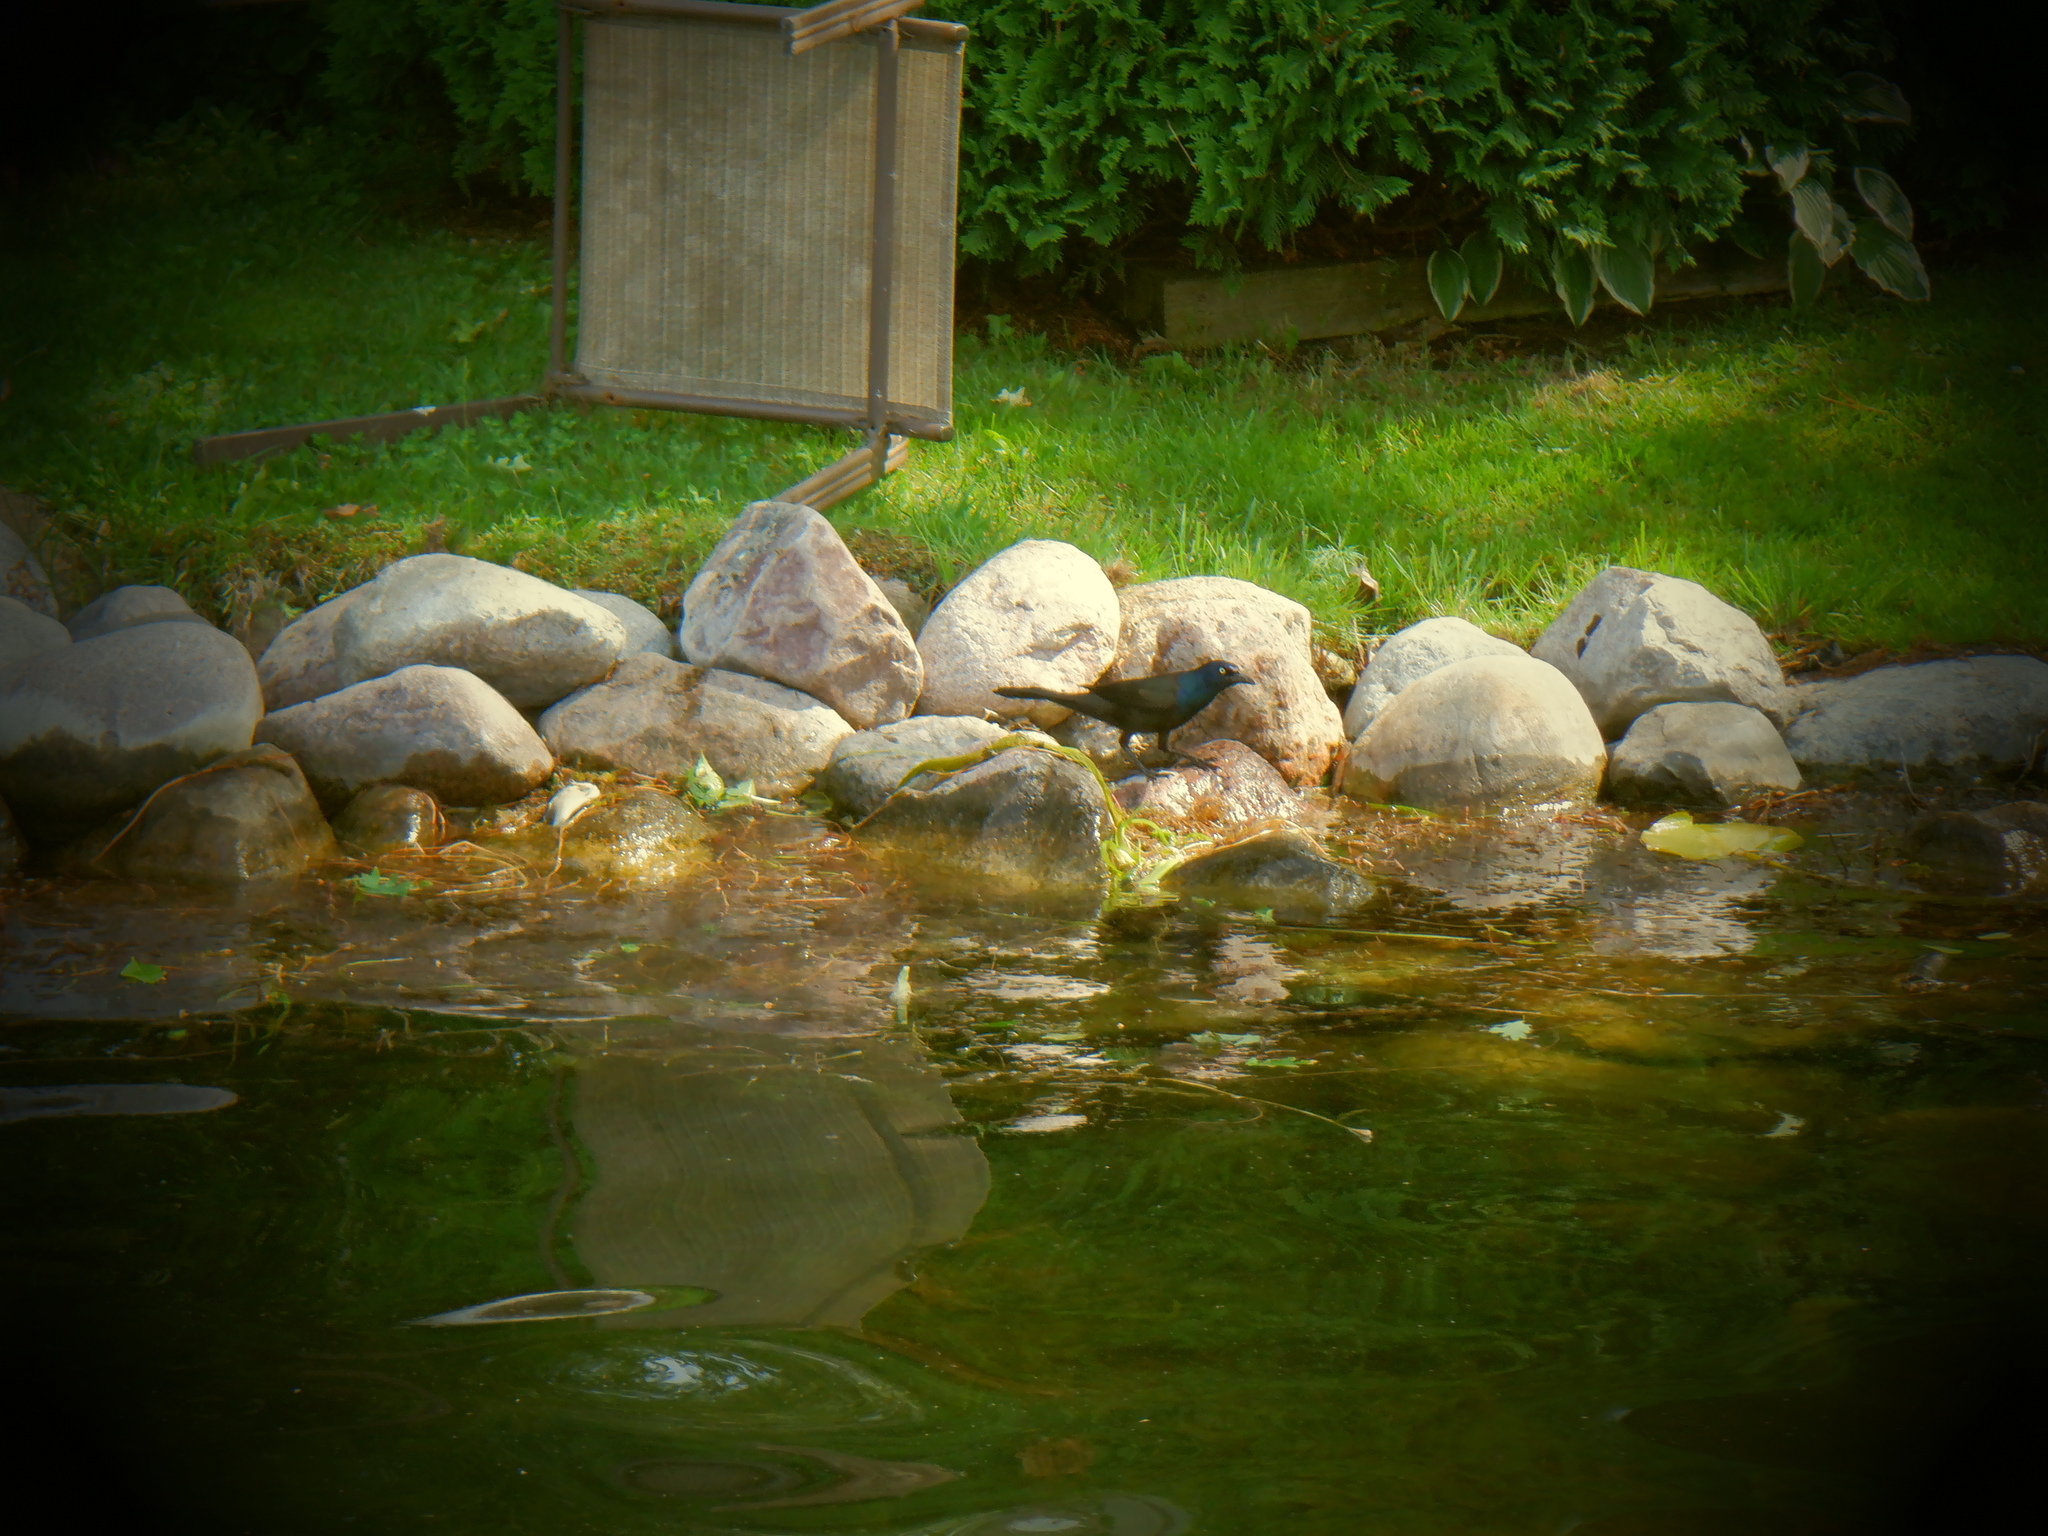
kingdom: Animalia
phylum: Chordata
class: Aves
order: Passeriformes
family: Icteridae
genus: Quiscalus
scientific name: Quiscalus quiscula
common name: Common grackle
